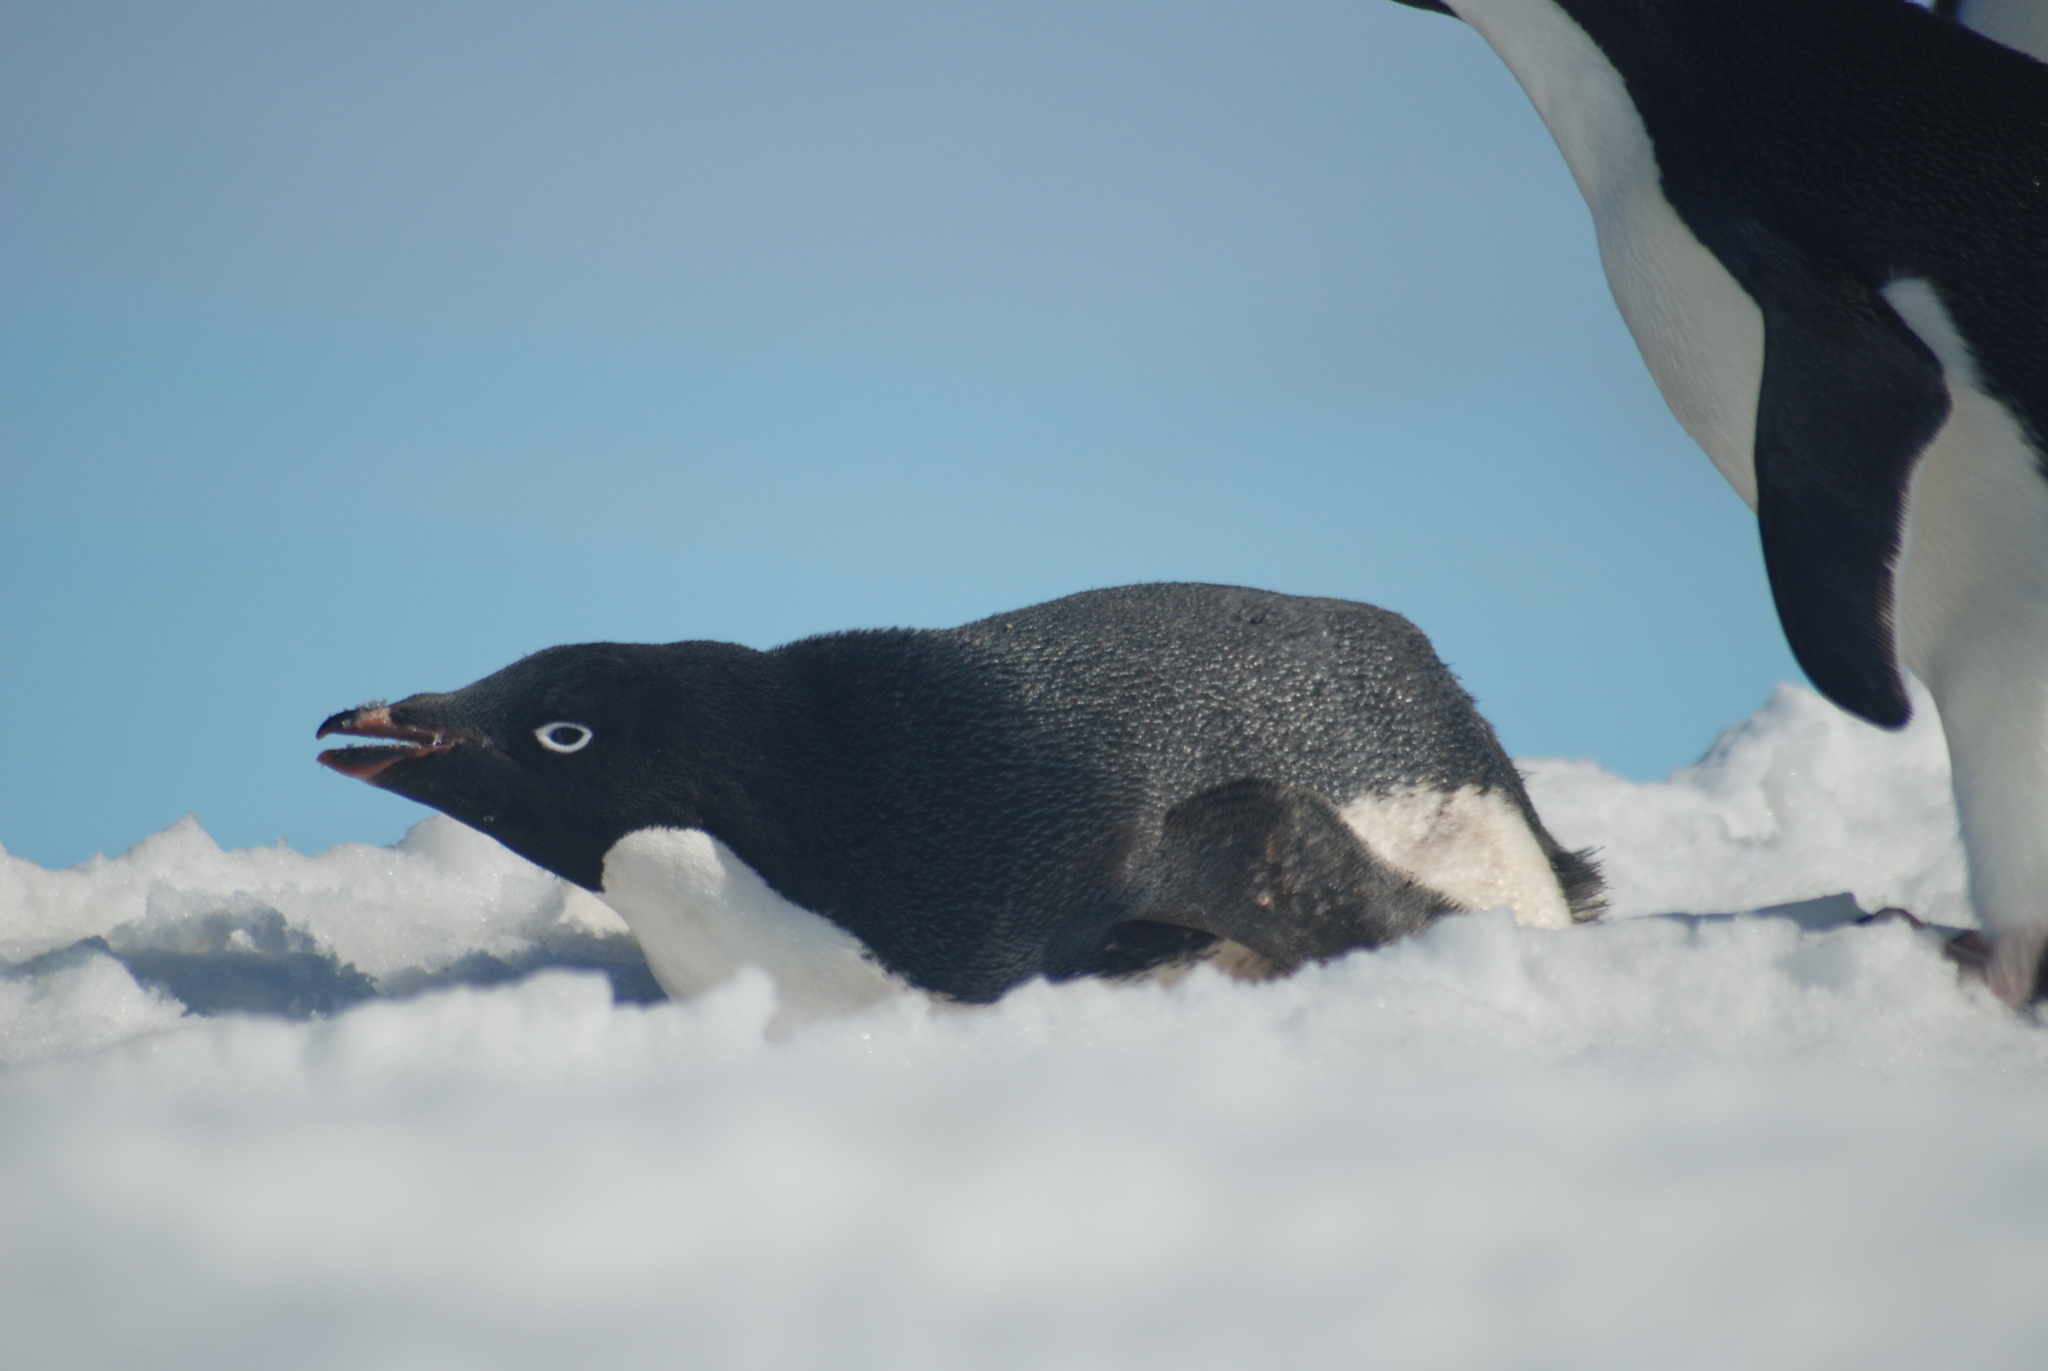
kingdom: Animalia
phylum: Chordata
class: Aves
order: Sphenisciformes
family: Spheniscidae
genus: Pygoscelis
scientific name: Pygoscelis adeliae
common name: Adelie penguin
